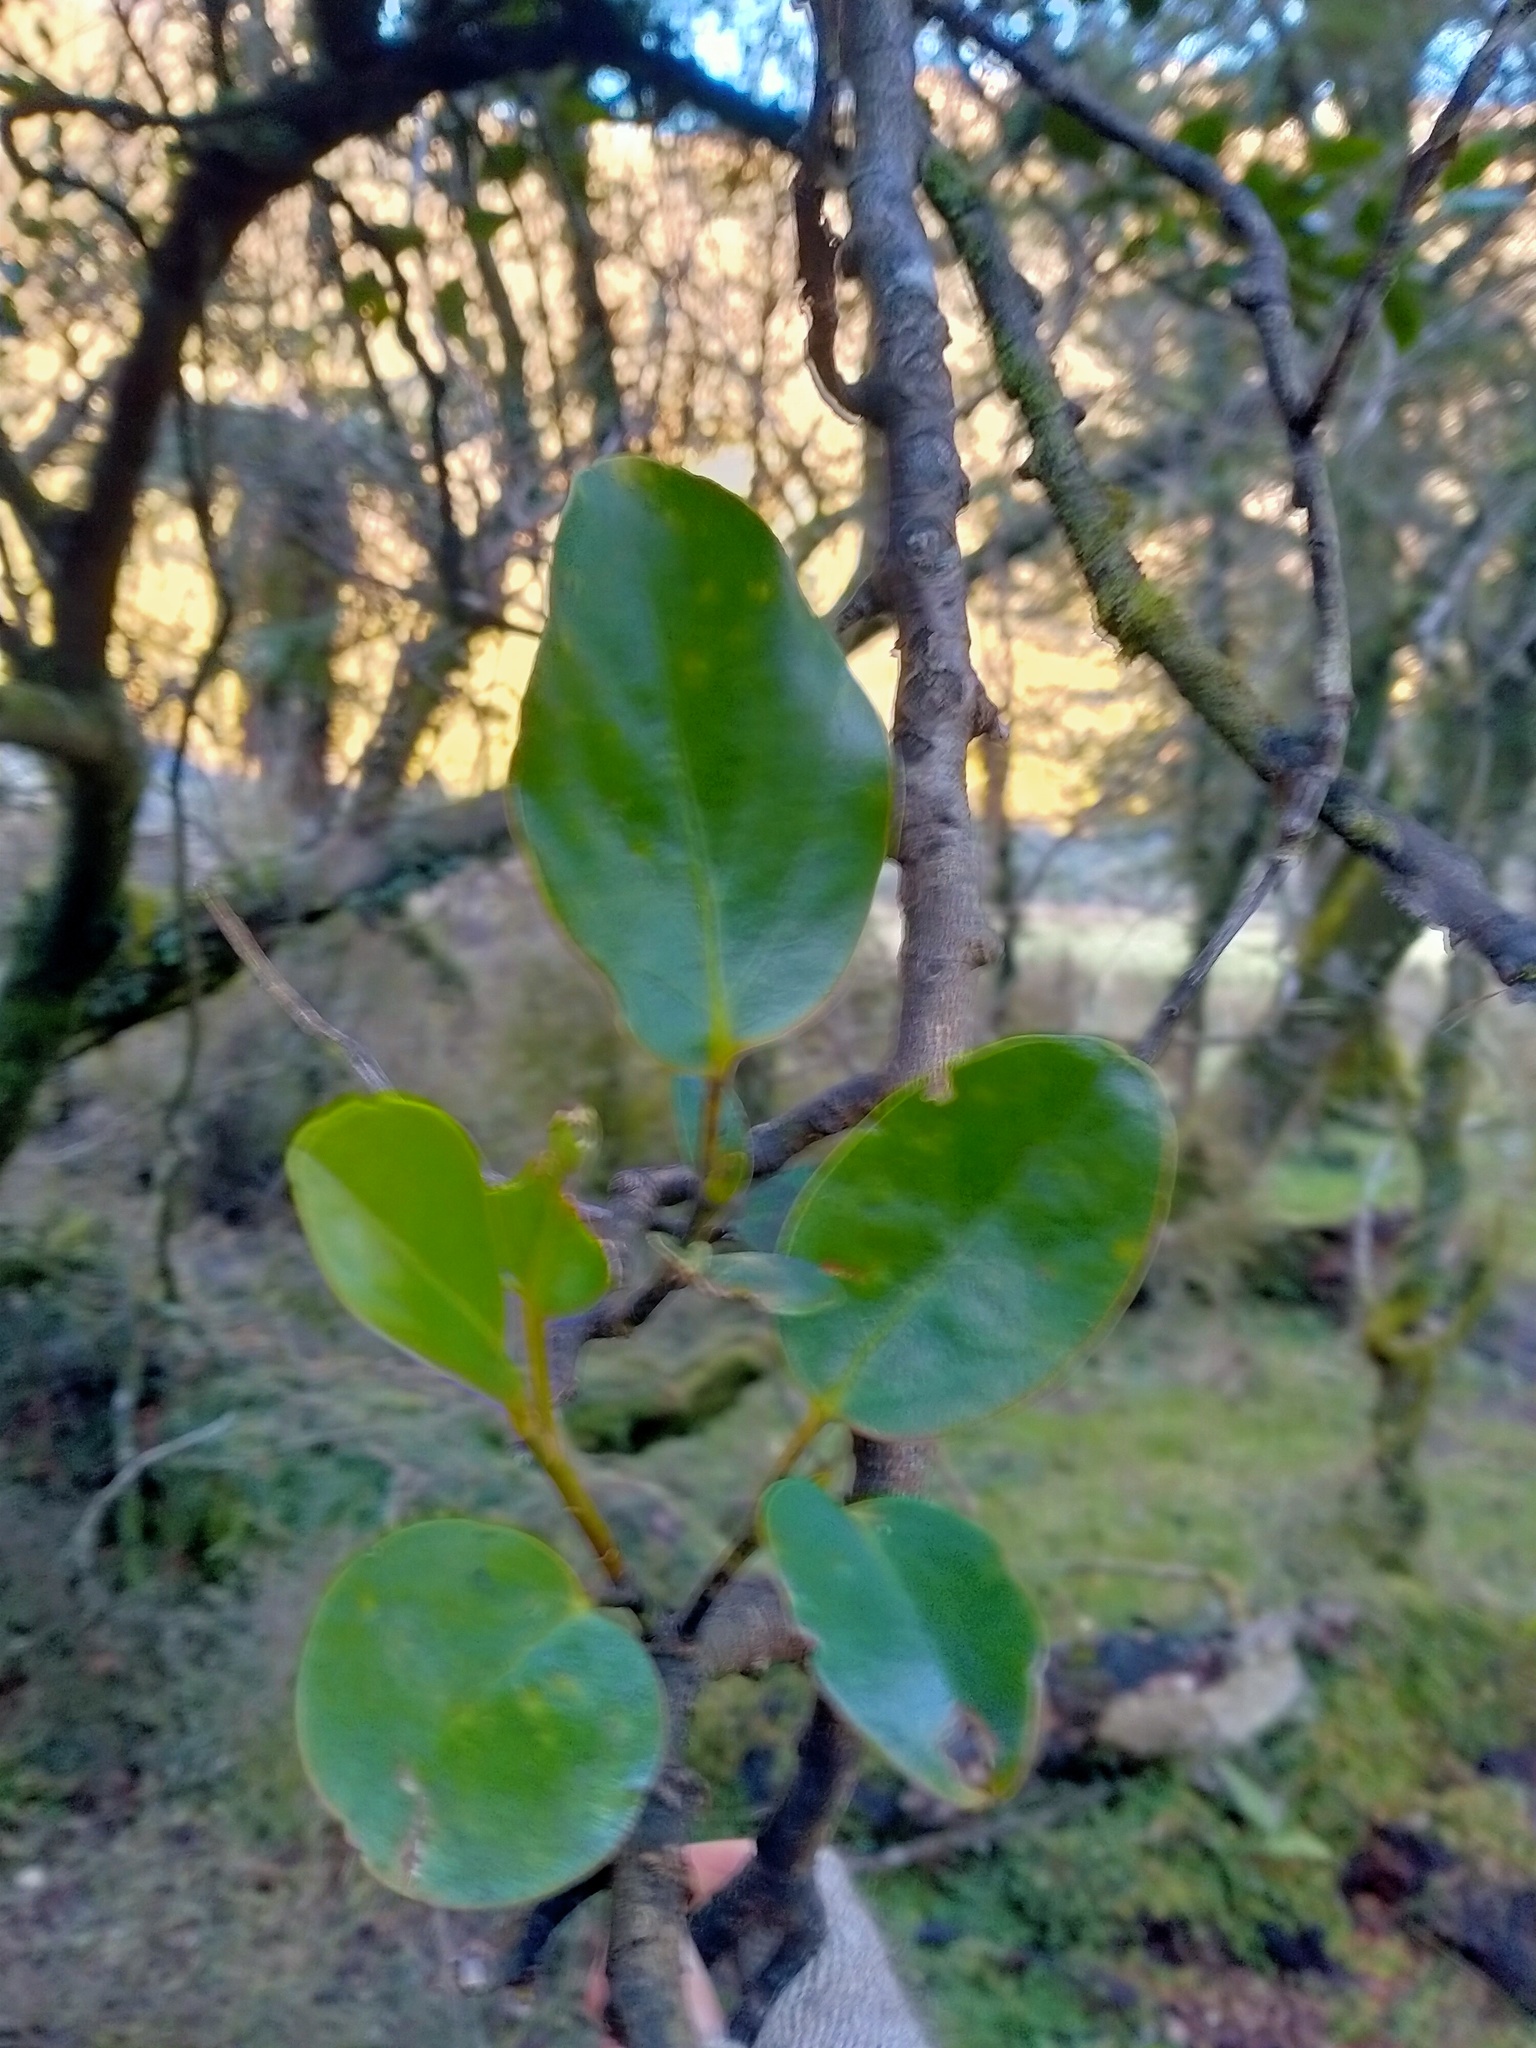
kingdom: Plantae
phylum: Tracheophyta
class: Magnoliopsida
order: Apiales
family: Griseliniaceae
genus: Griselinia
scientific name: Griselinia littoralis
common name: New zealand broadleaf
